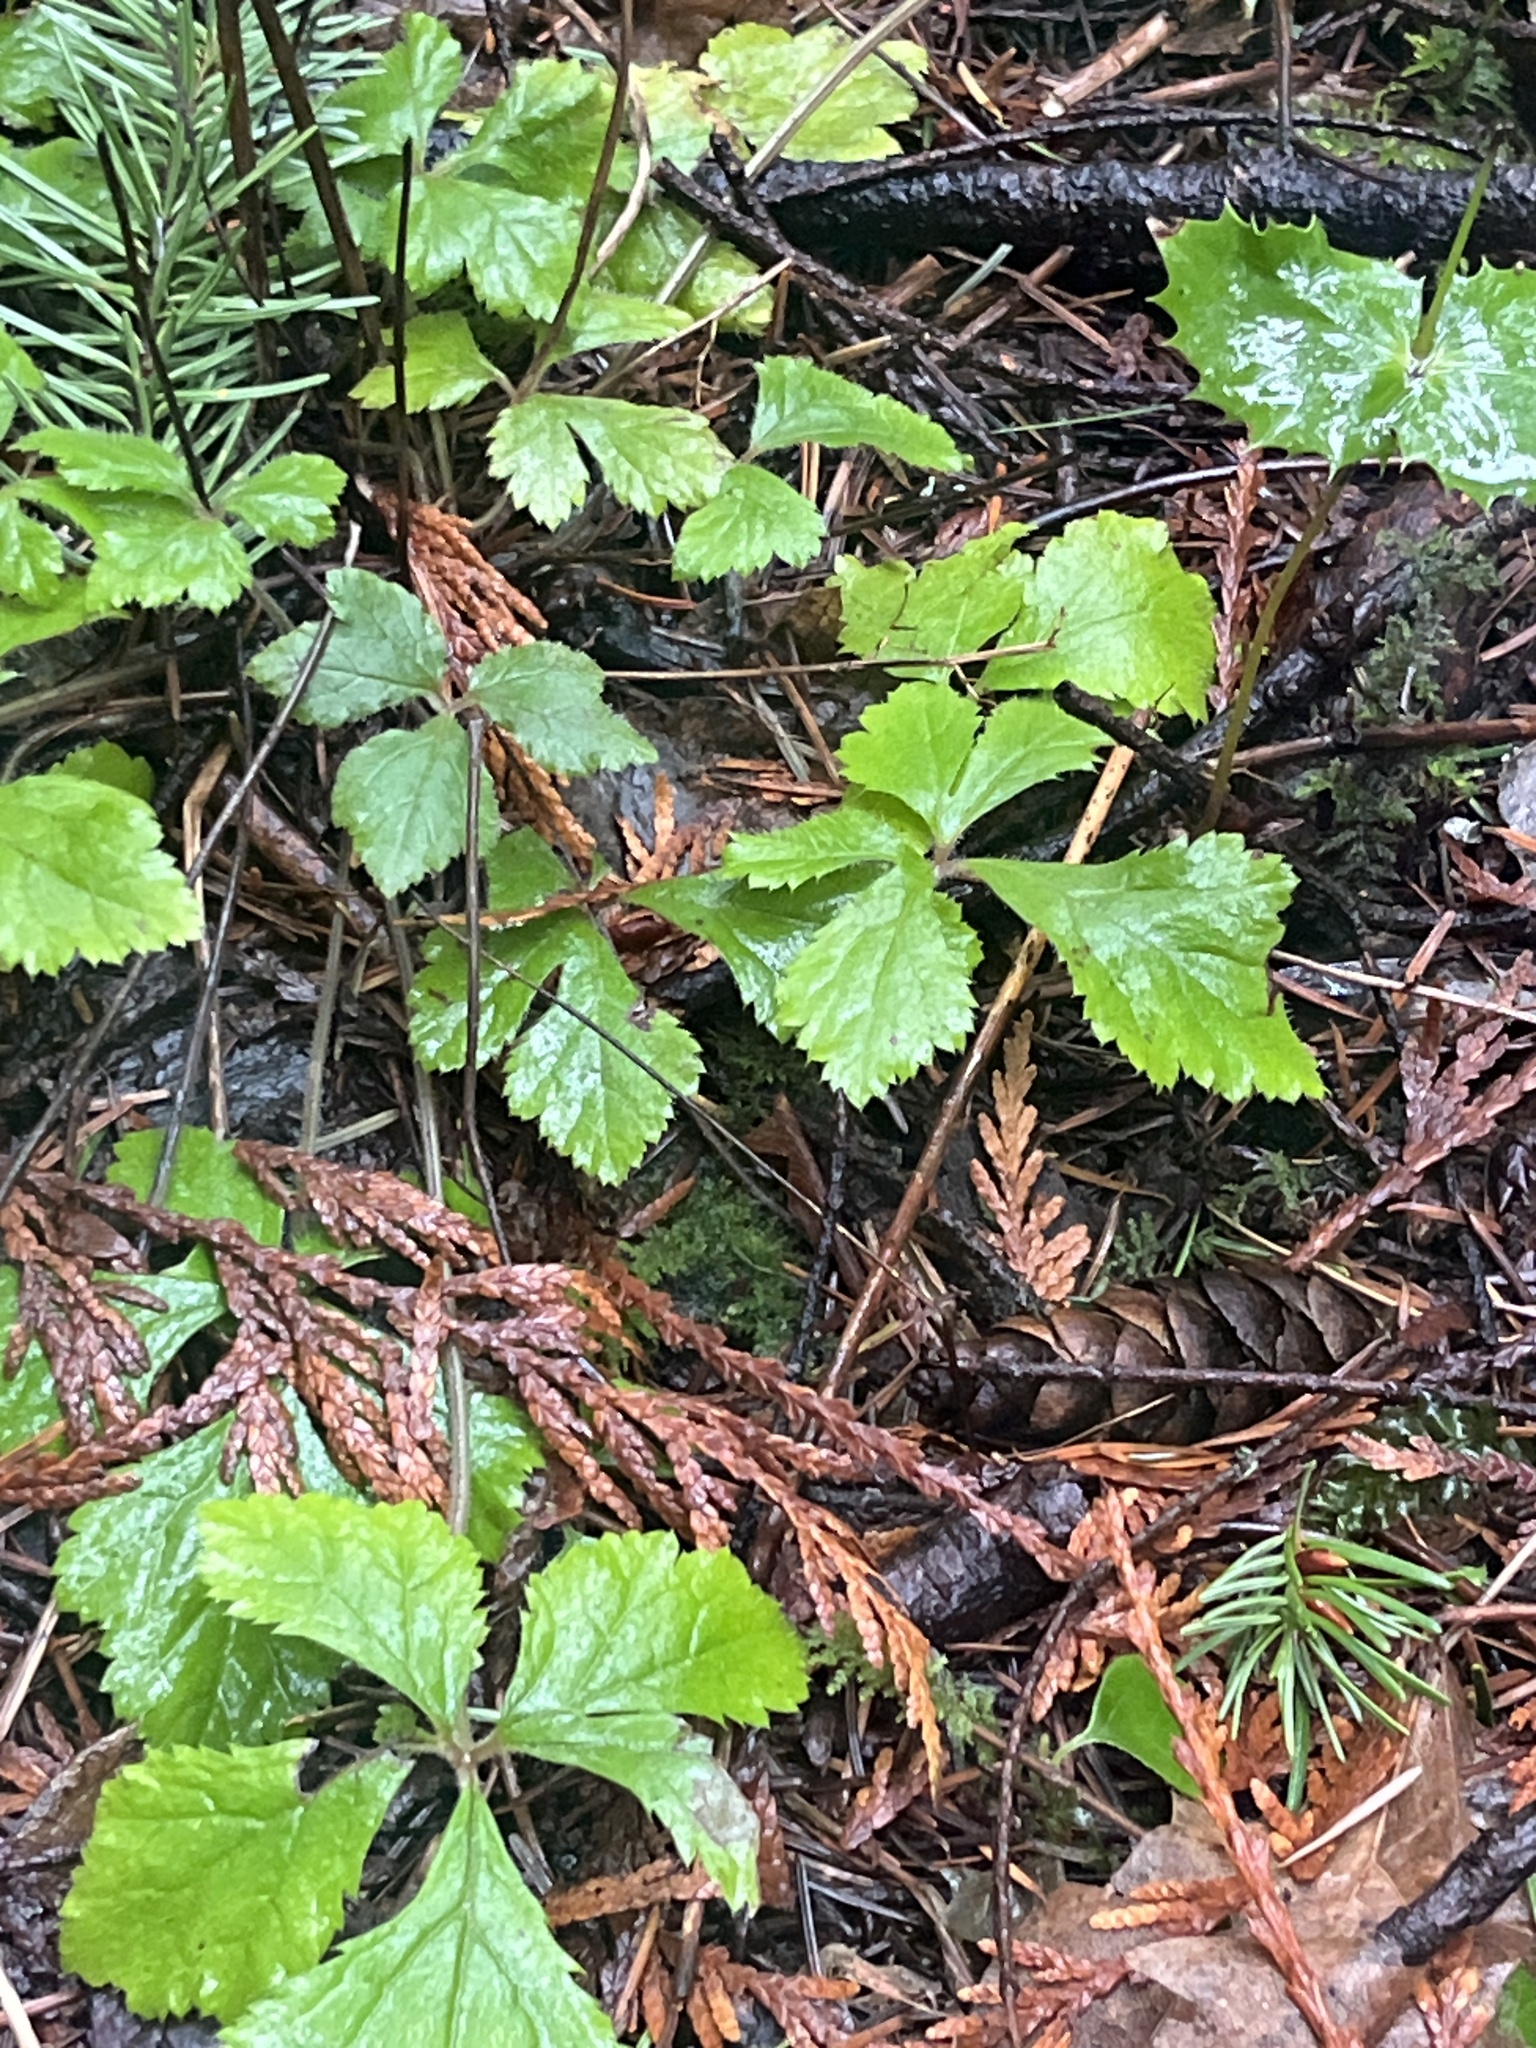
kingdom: Plantae
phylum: Tracheophyta
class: Magnoliopsida
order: Saxifragales
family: Saxifragaceae
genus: Tiarella
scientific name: Tiarella trifoliata
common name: Sugar-scoop
